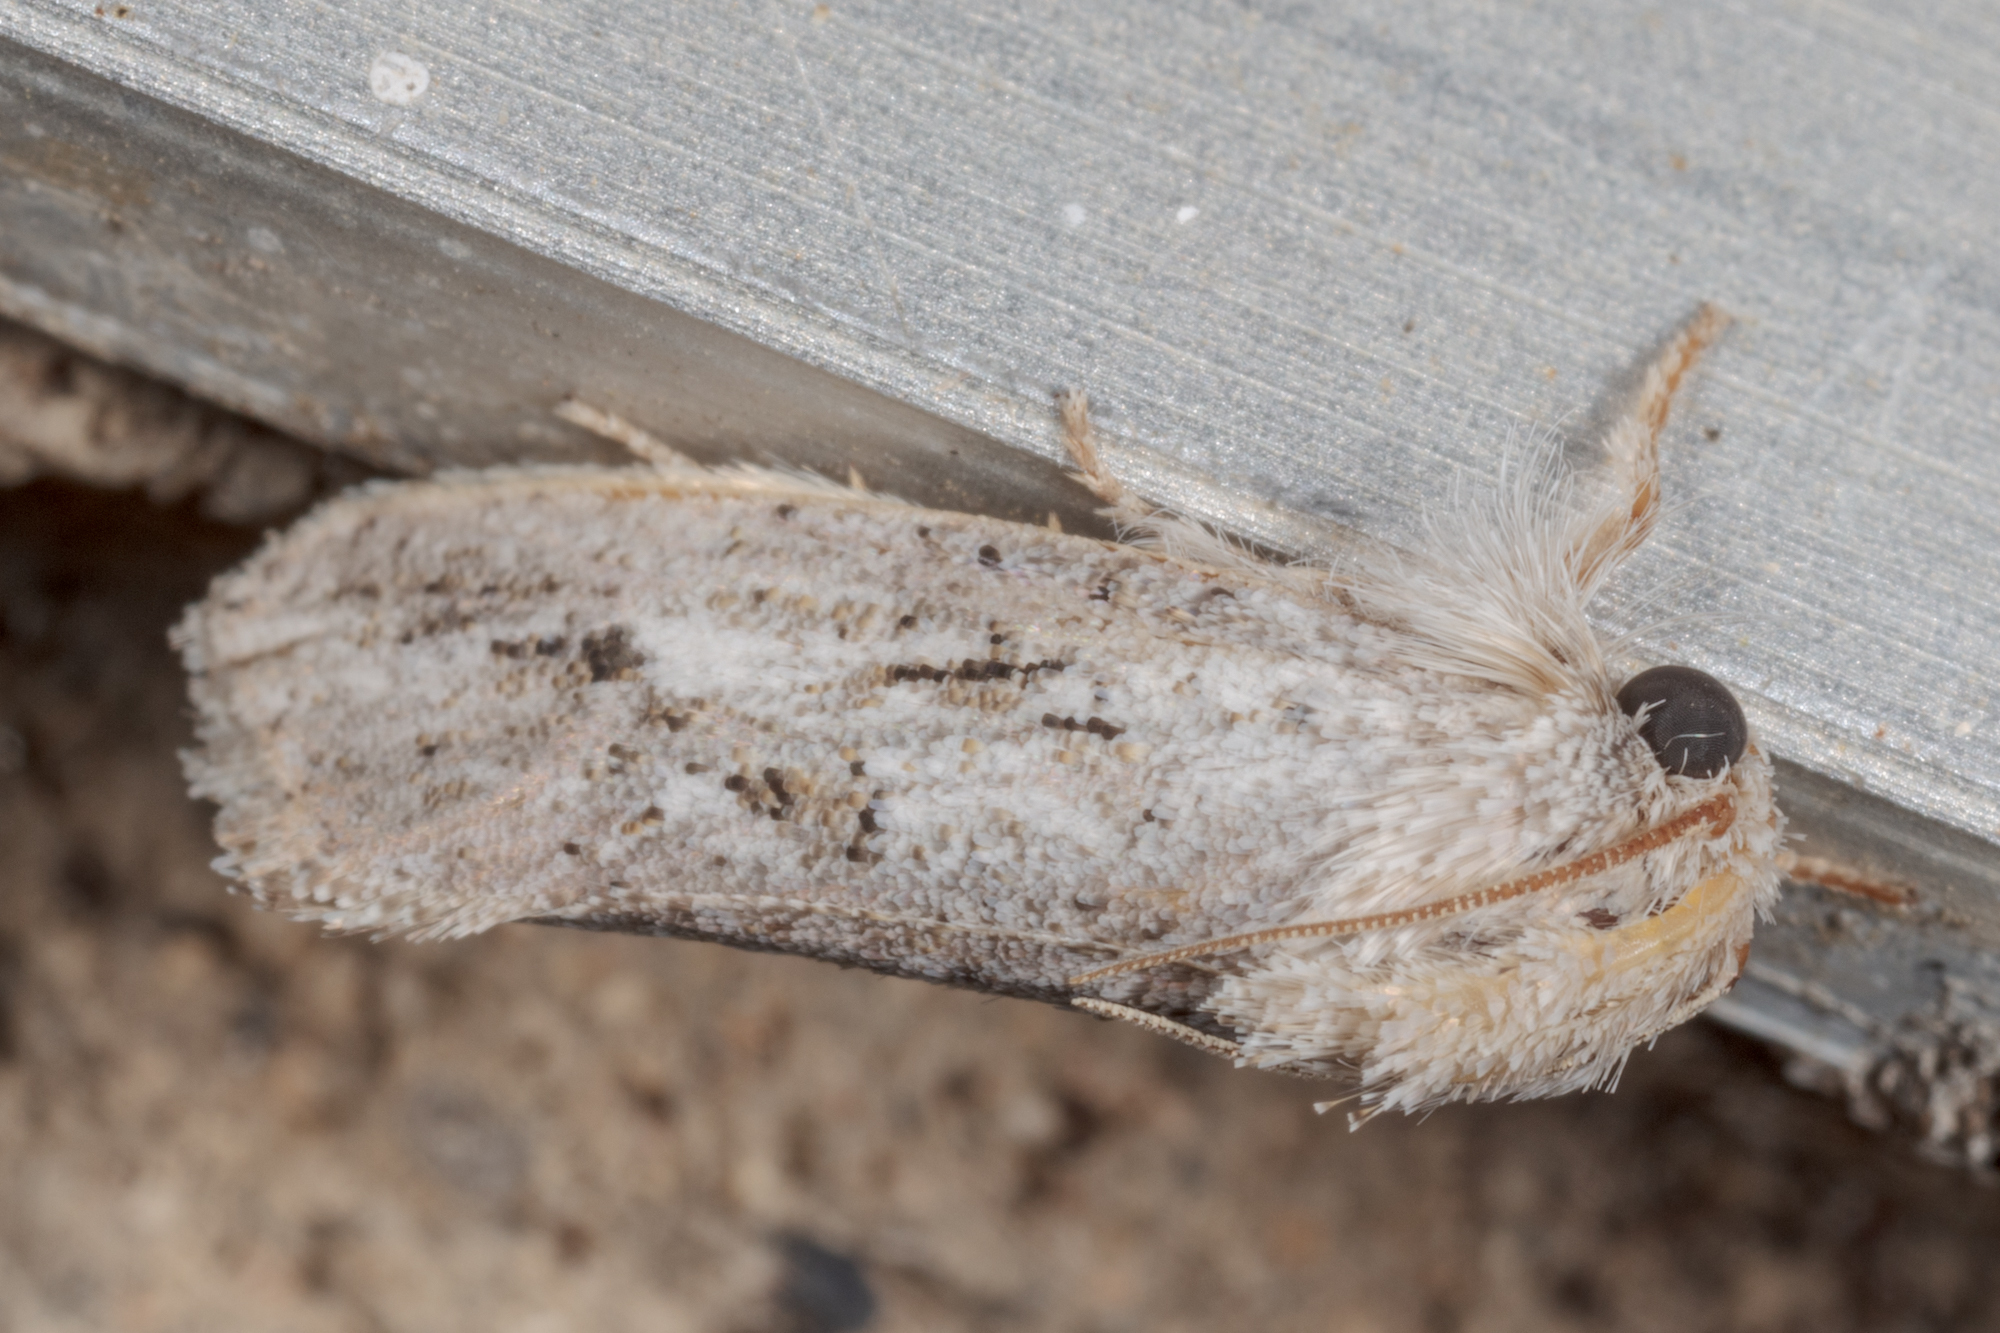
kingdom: Animalia
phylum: Arthropoda
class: Insecta
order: Lepidoptera
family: Tineidae
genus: Acrolophus
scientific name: Acrolophus griseus
